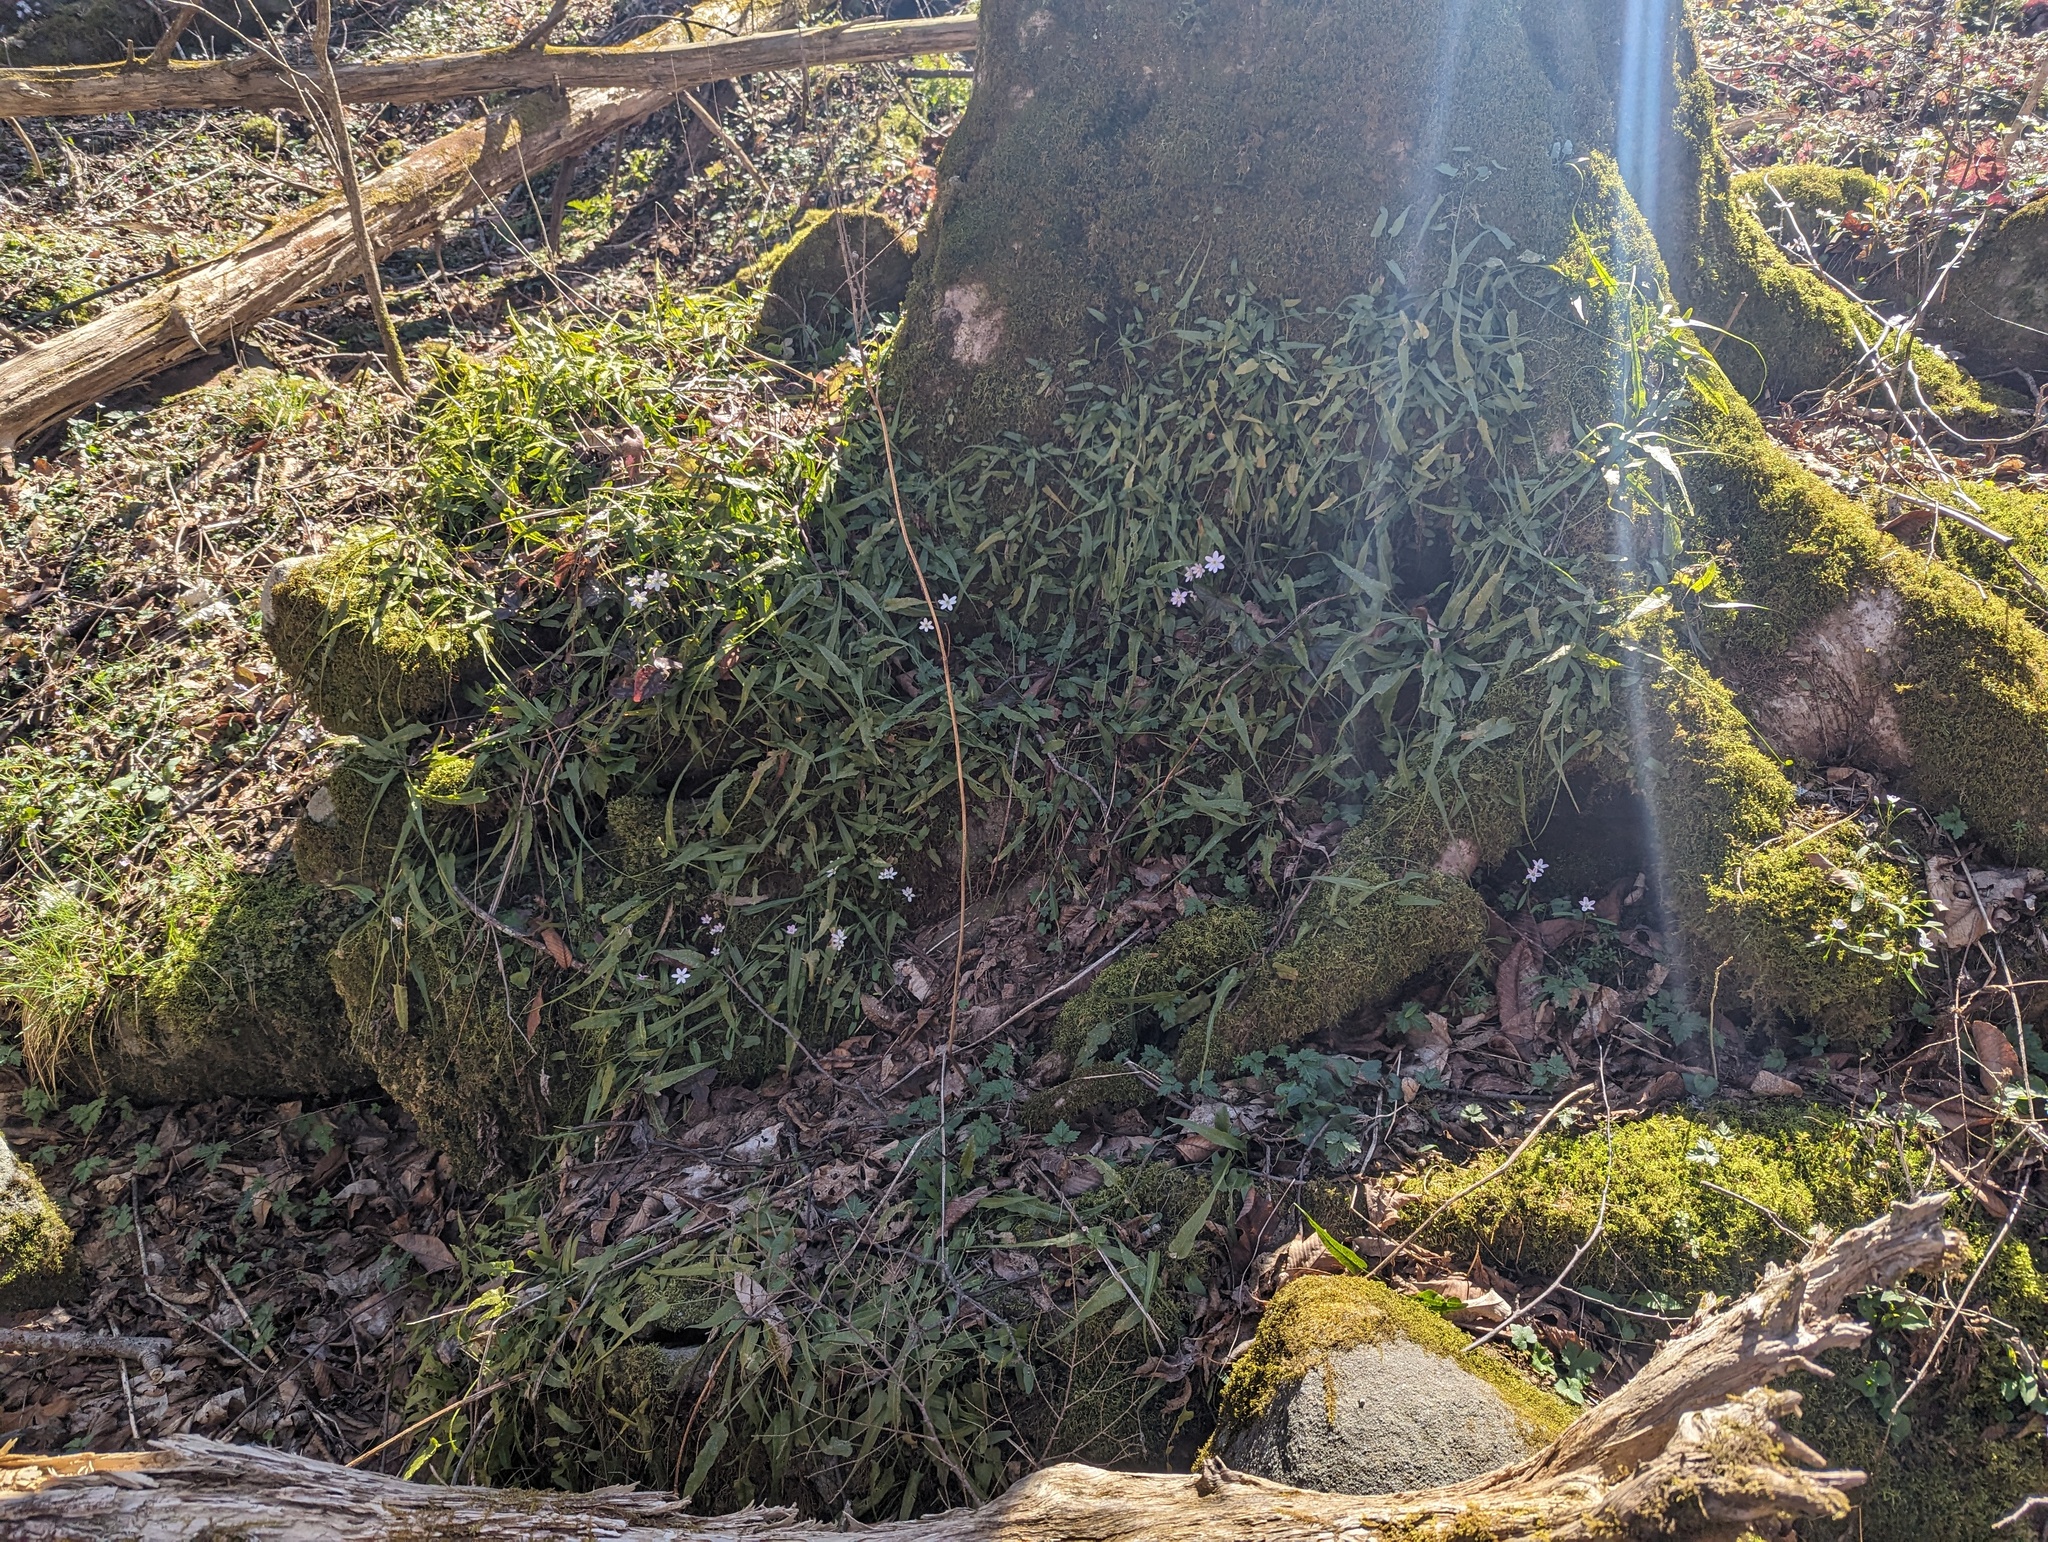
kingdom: Plantae
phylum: Tracheophyta
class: Polypodiopsida
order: Polypodiales
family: Aspleniaceae
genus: Asplenium
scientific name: Asplenium rhizophyllum
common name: Walking fern
